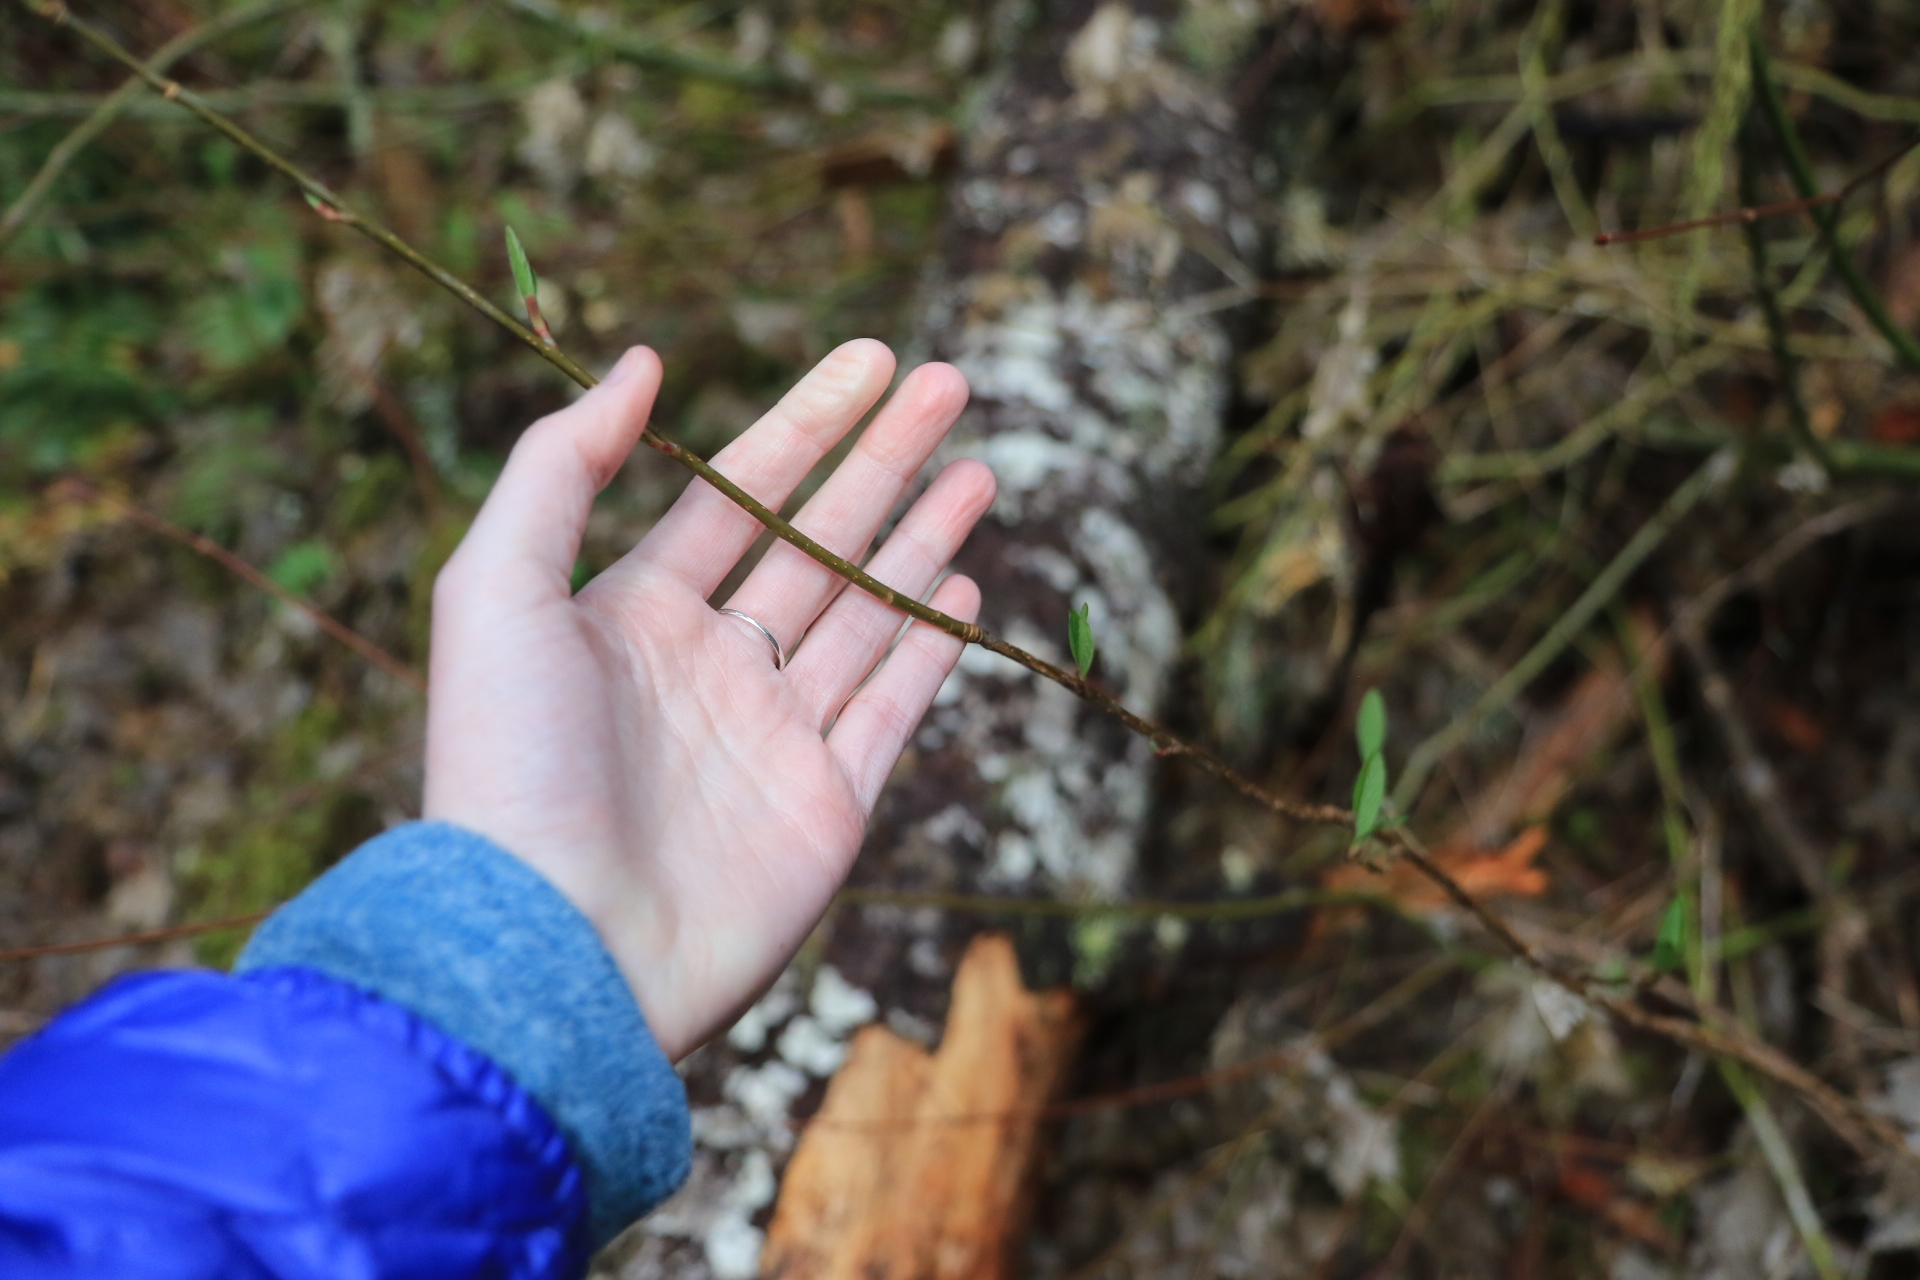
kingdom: Plantae
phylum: Tracheophyta
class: Magnoliopsida
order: Rosales
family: Rosaceae
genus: Oemleria
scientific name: Oemleria cerasiformis
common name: Osoberry
